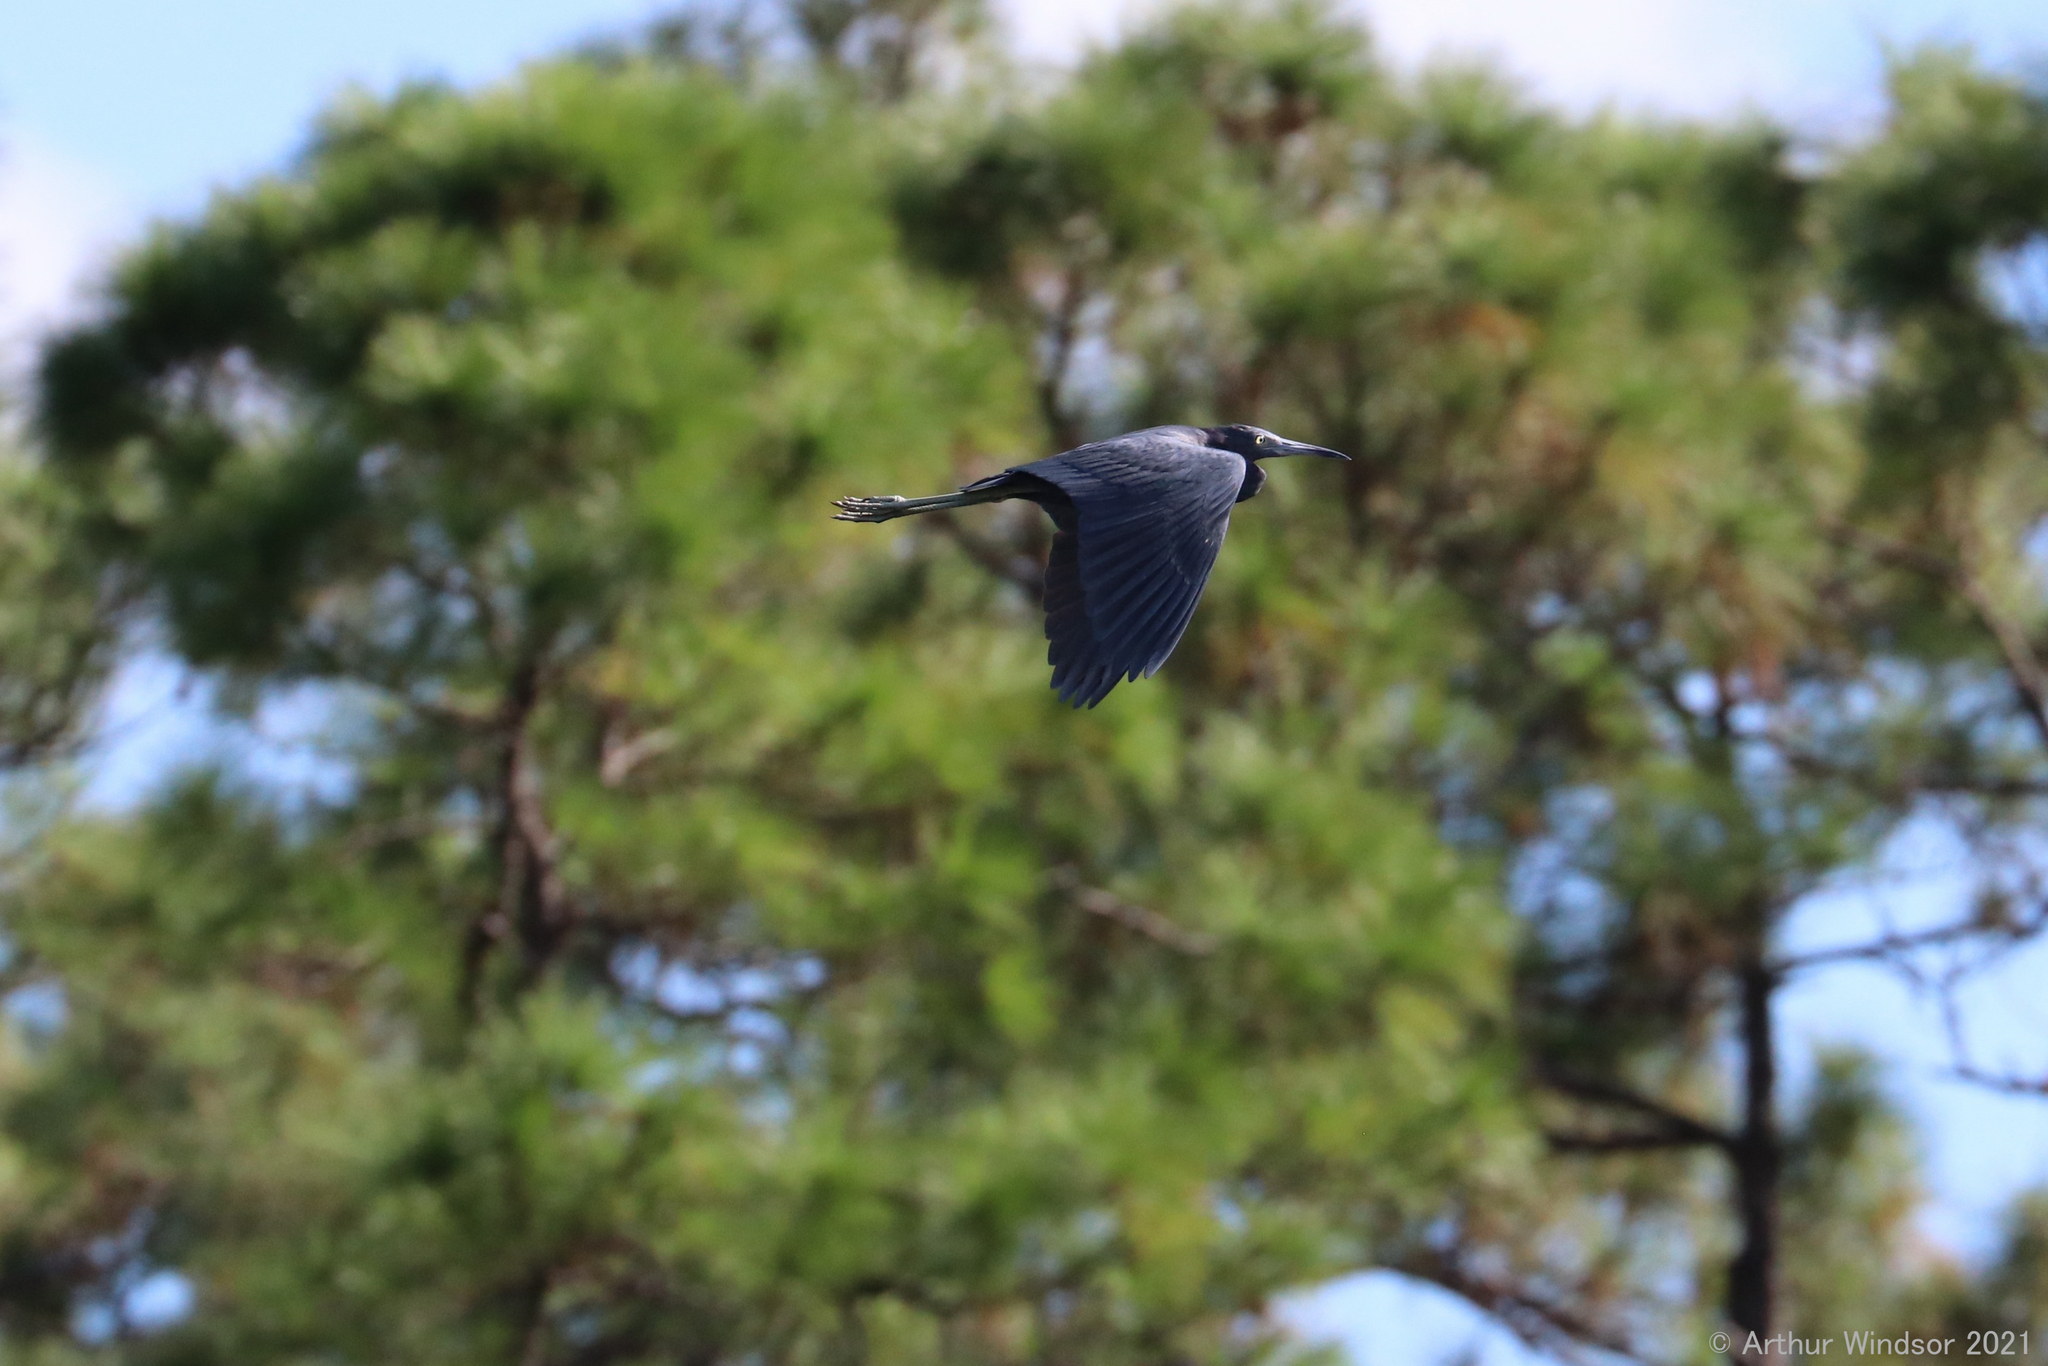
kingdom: Animalia
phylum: Chordata
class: Aves
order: Pelecaniformes
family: Ardeidae
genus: Egretta
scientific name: Egretta caerulea
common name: Little blue heron
